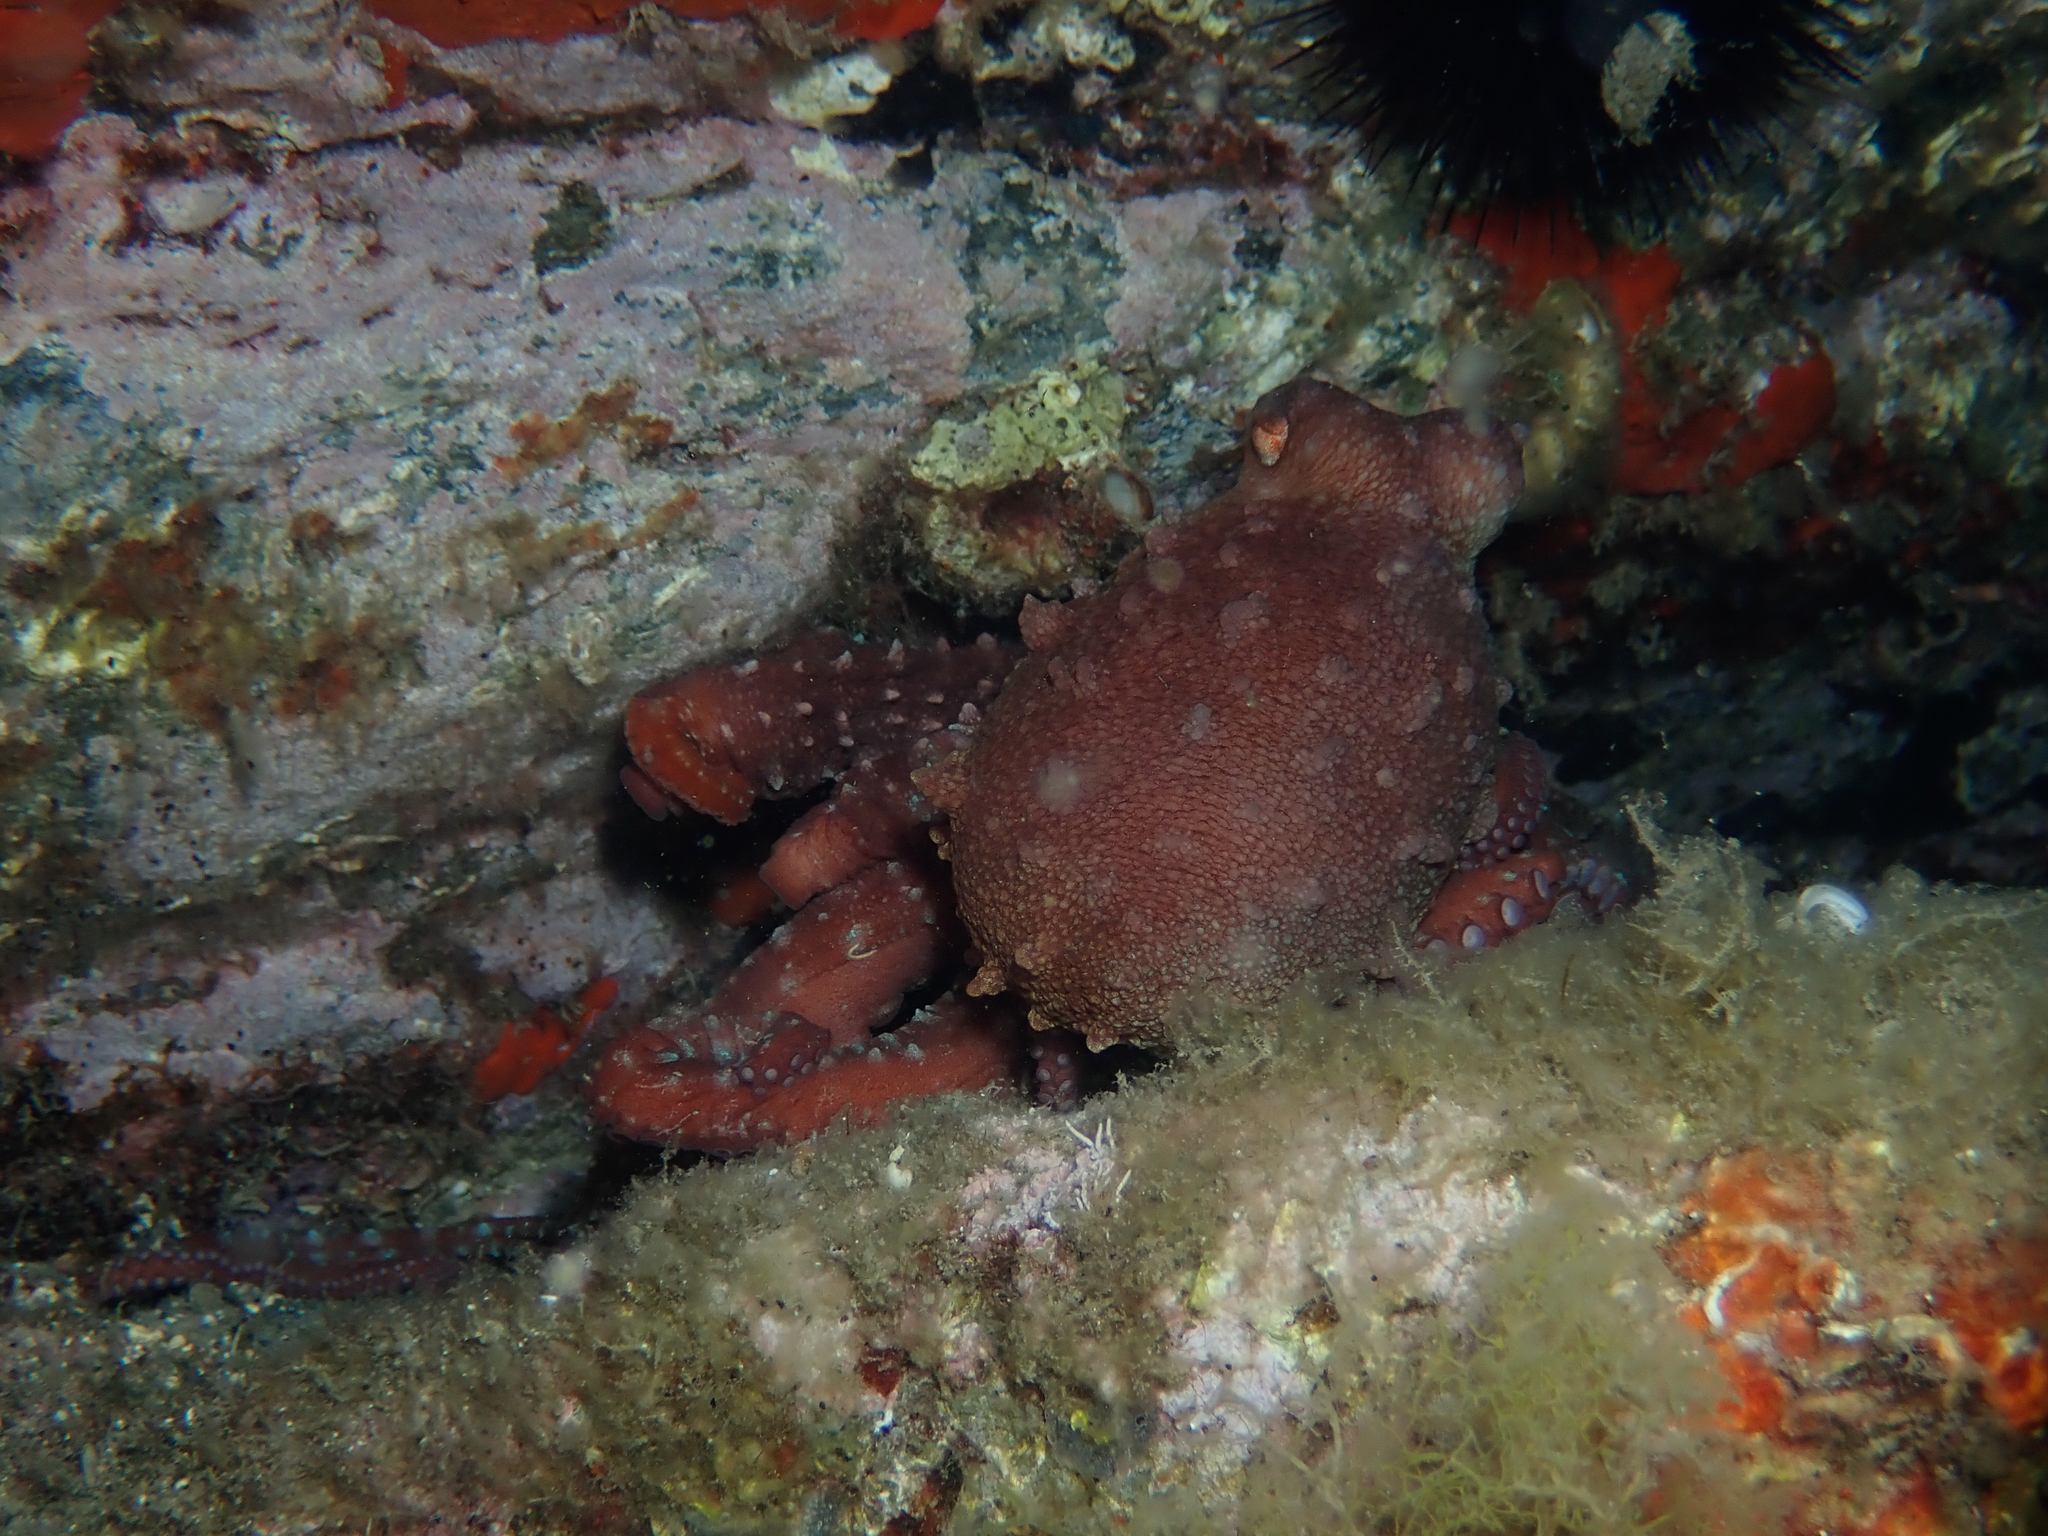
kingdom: Animalia
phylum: Mollusca
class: Cephalopoda
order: Octopoda
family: Octopodidae
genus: Callistoctopus
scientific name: Callistoctopus macropus
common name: Atlantic white-spotted octopus
